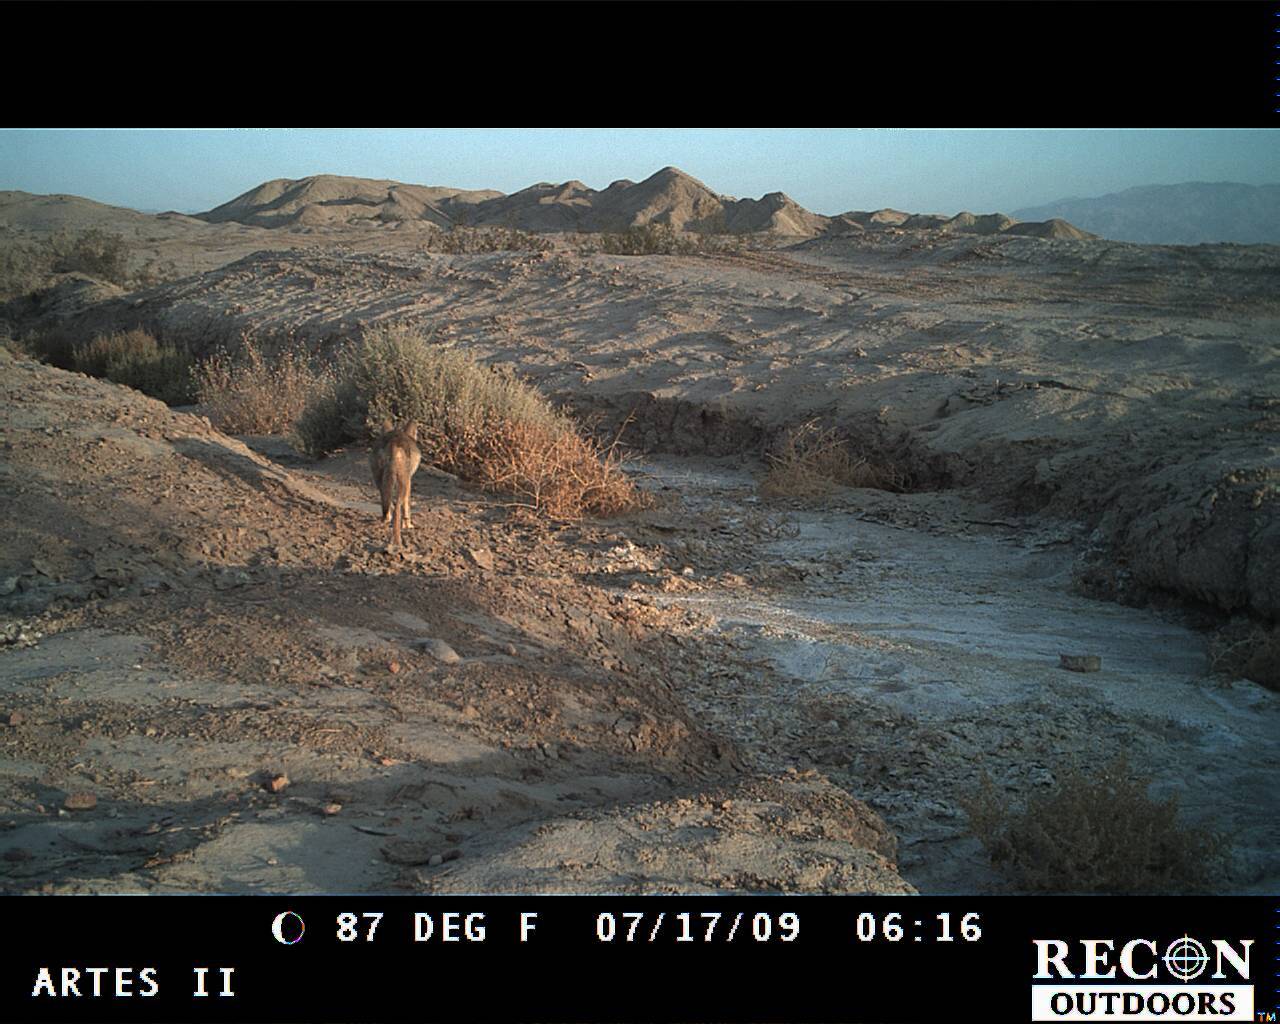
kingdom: Animalia
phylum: Chordata
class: Mammalia
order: Carnivora
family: Canidae
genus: Canis
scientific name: Canis latrans
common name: Coyote
